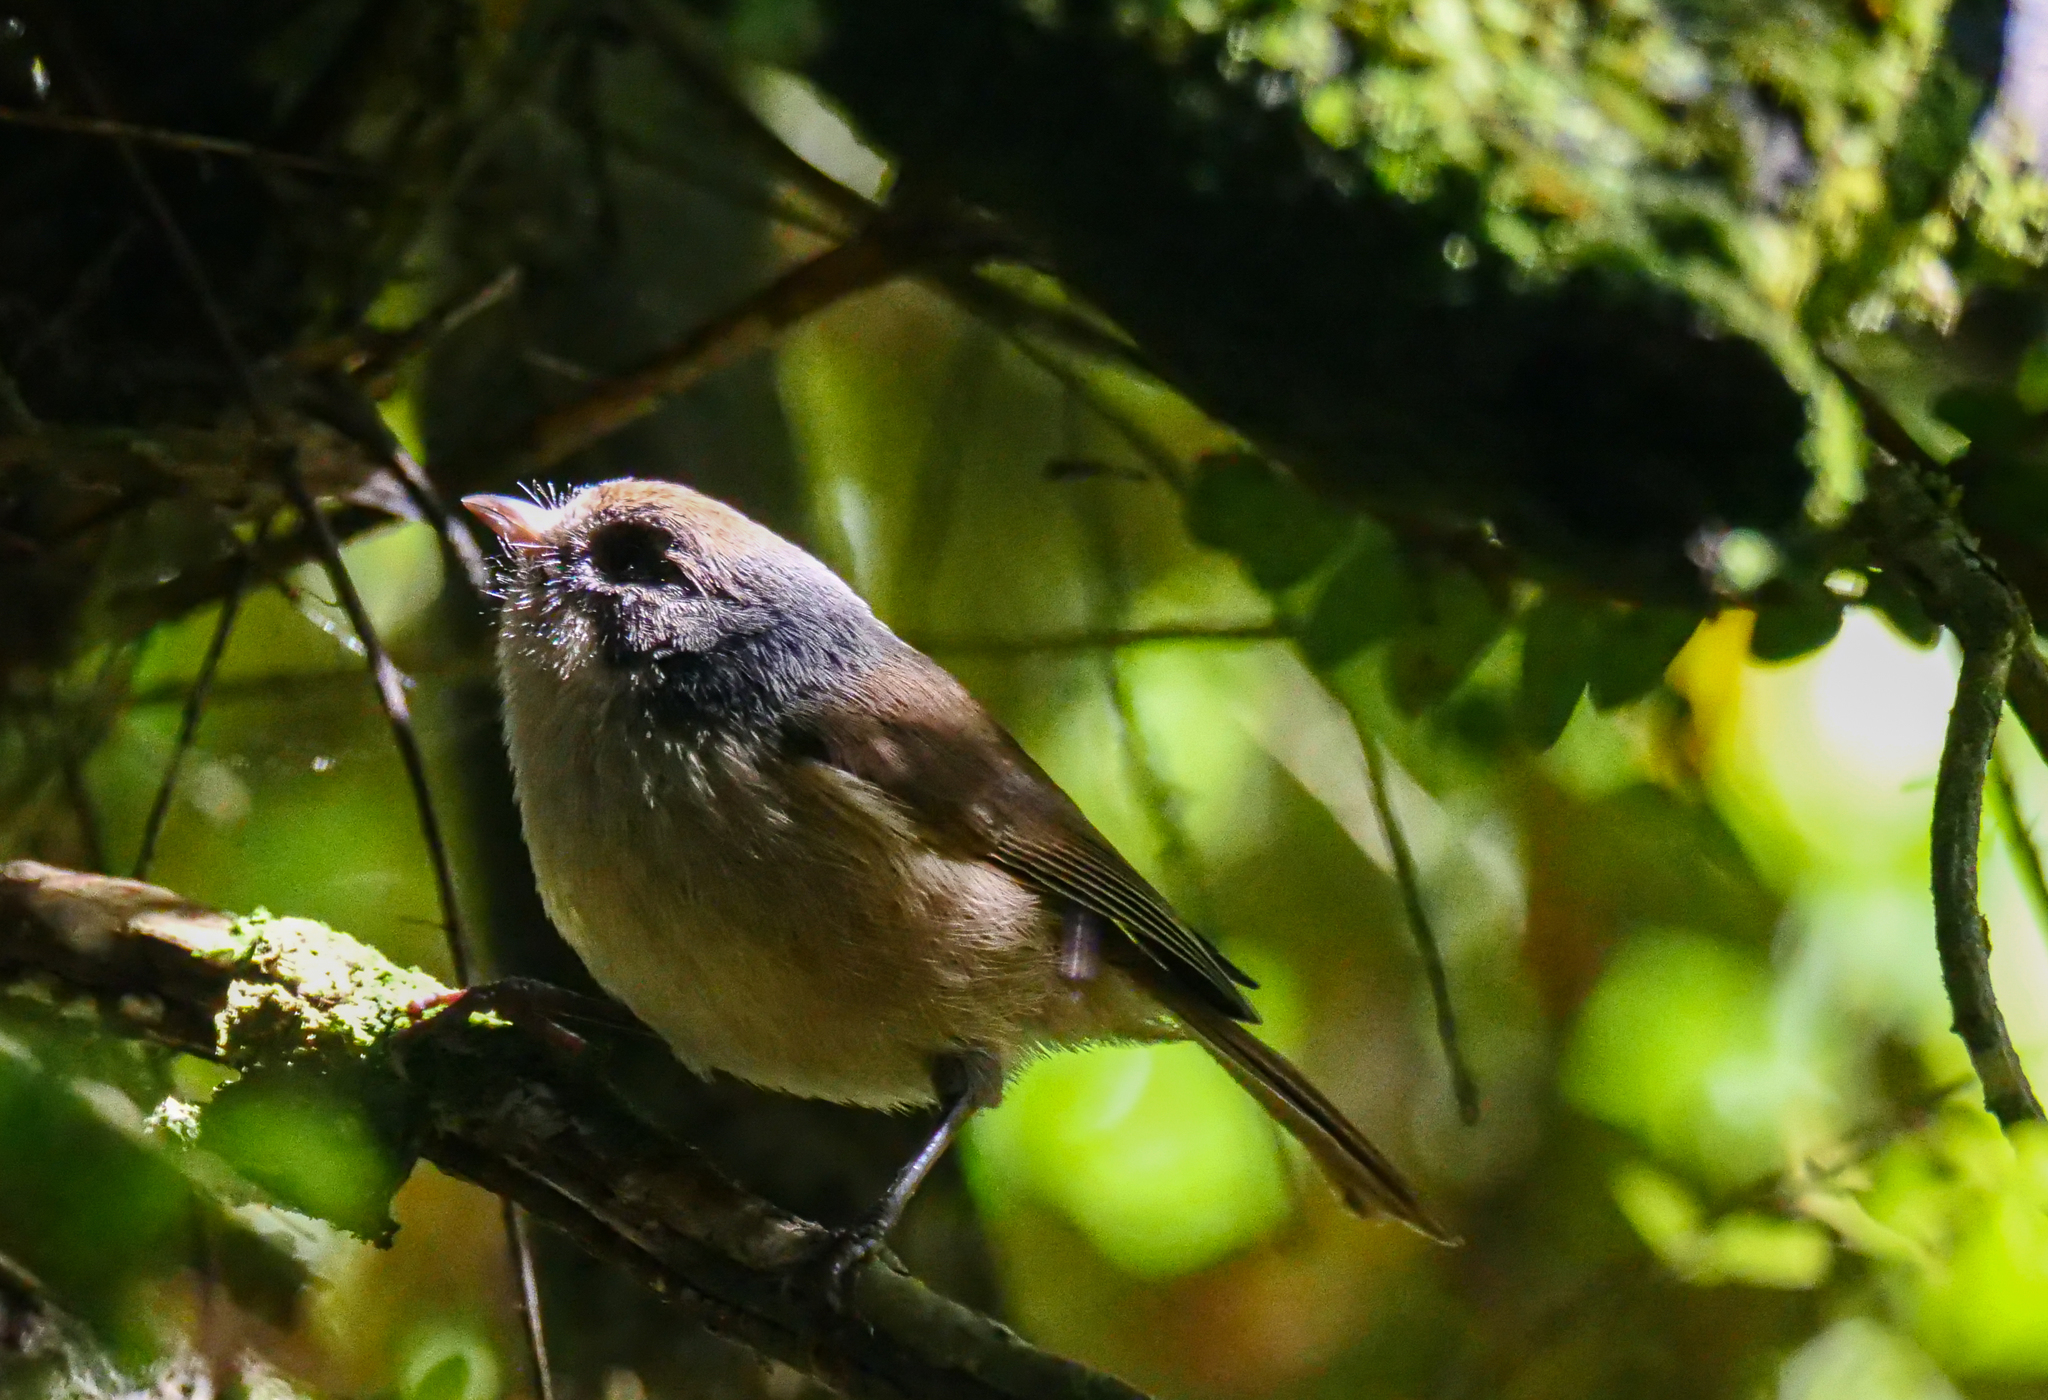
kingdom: Animalia
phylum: Chordata
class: Aves
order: Passeriformes
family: Acanthizidae
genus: Finschia
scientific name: Finschia novaeseelandiae
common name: Pipipi
